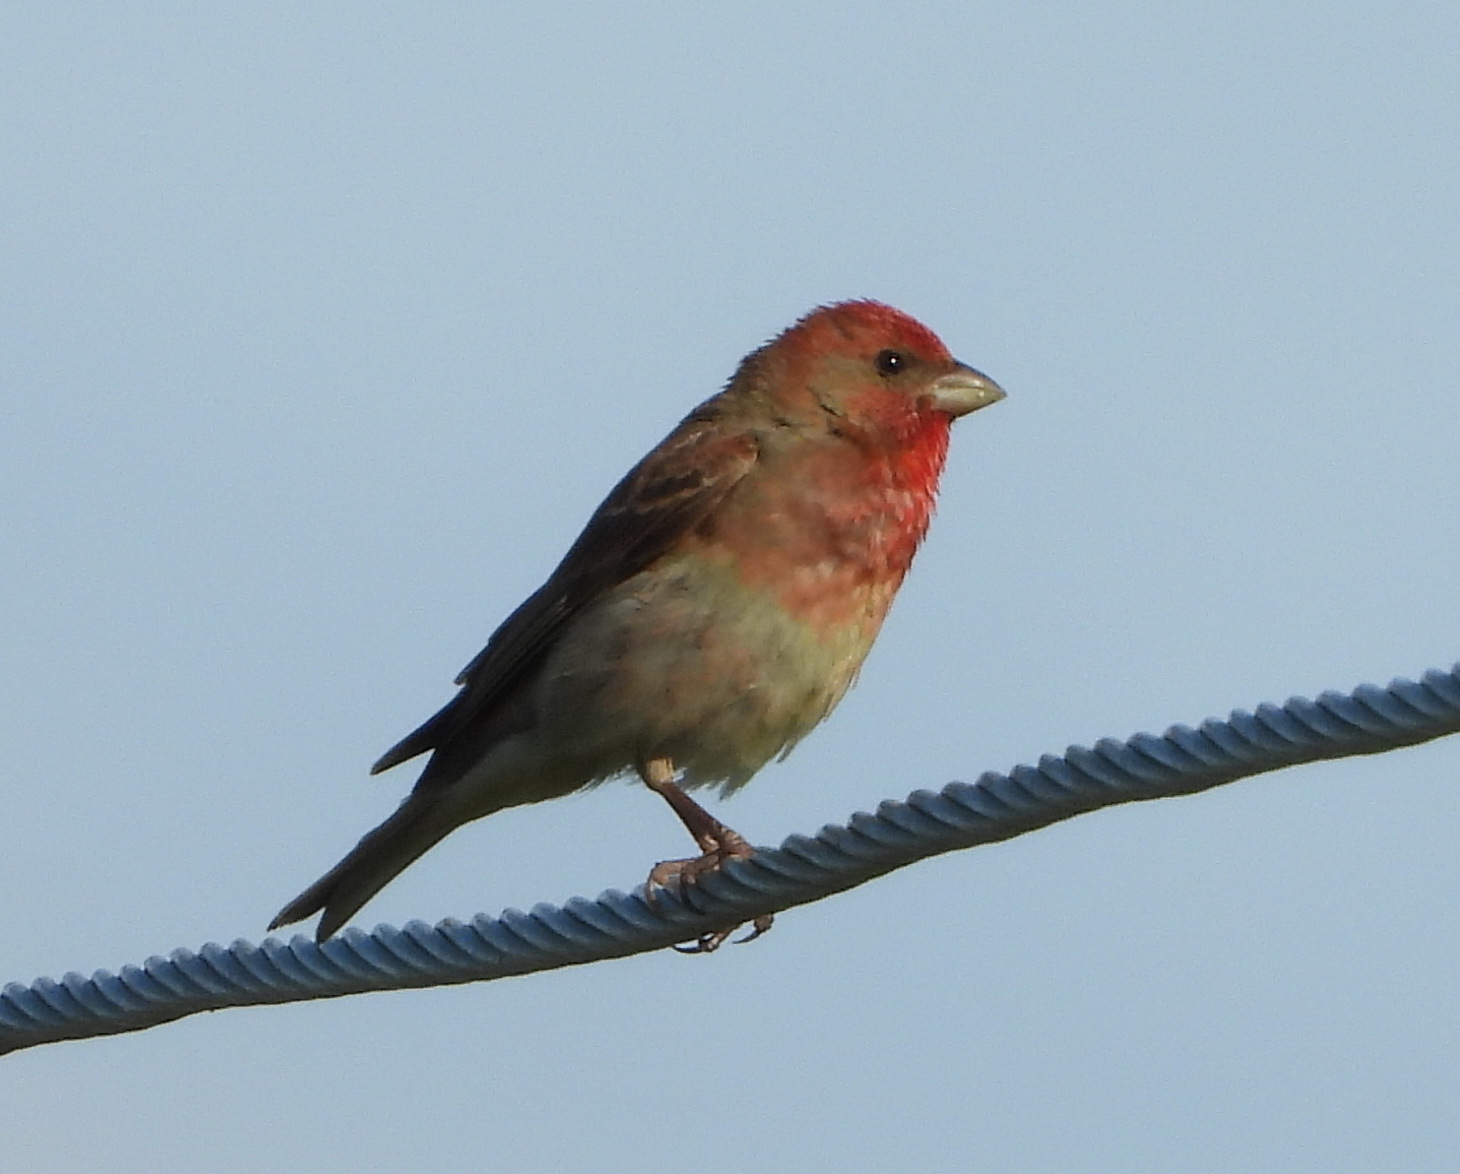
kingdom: Animalia
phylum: Chordata
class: Aves
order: Passeriformes
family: Fringillidae
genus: Carpodacus
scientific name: Carpodacus erythrinus
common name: Common rosefinch
